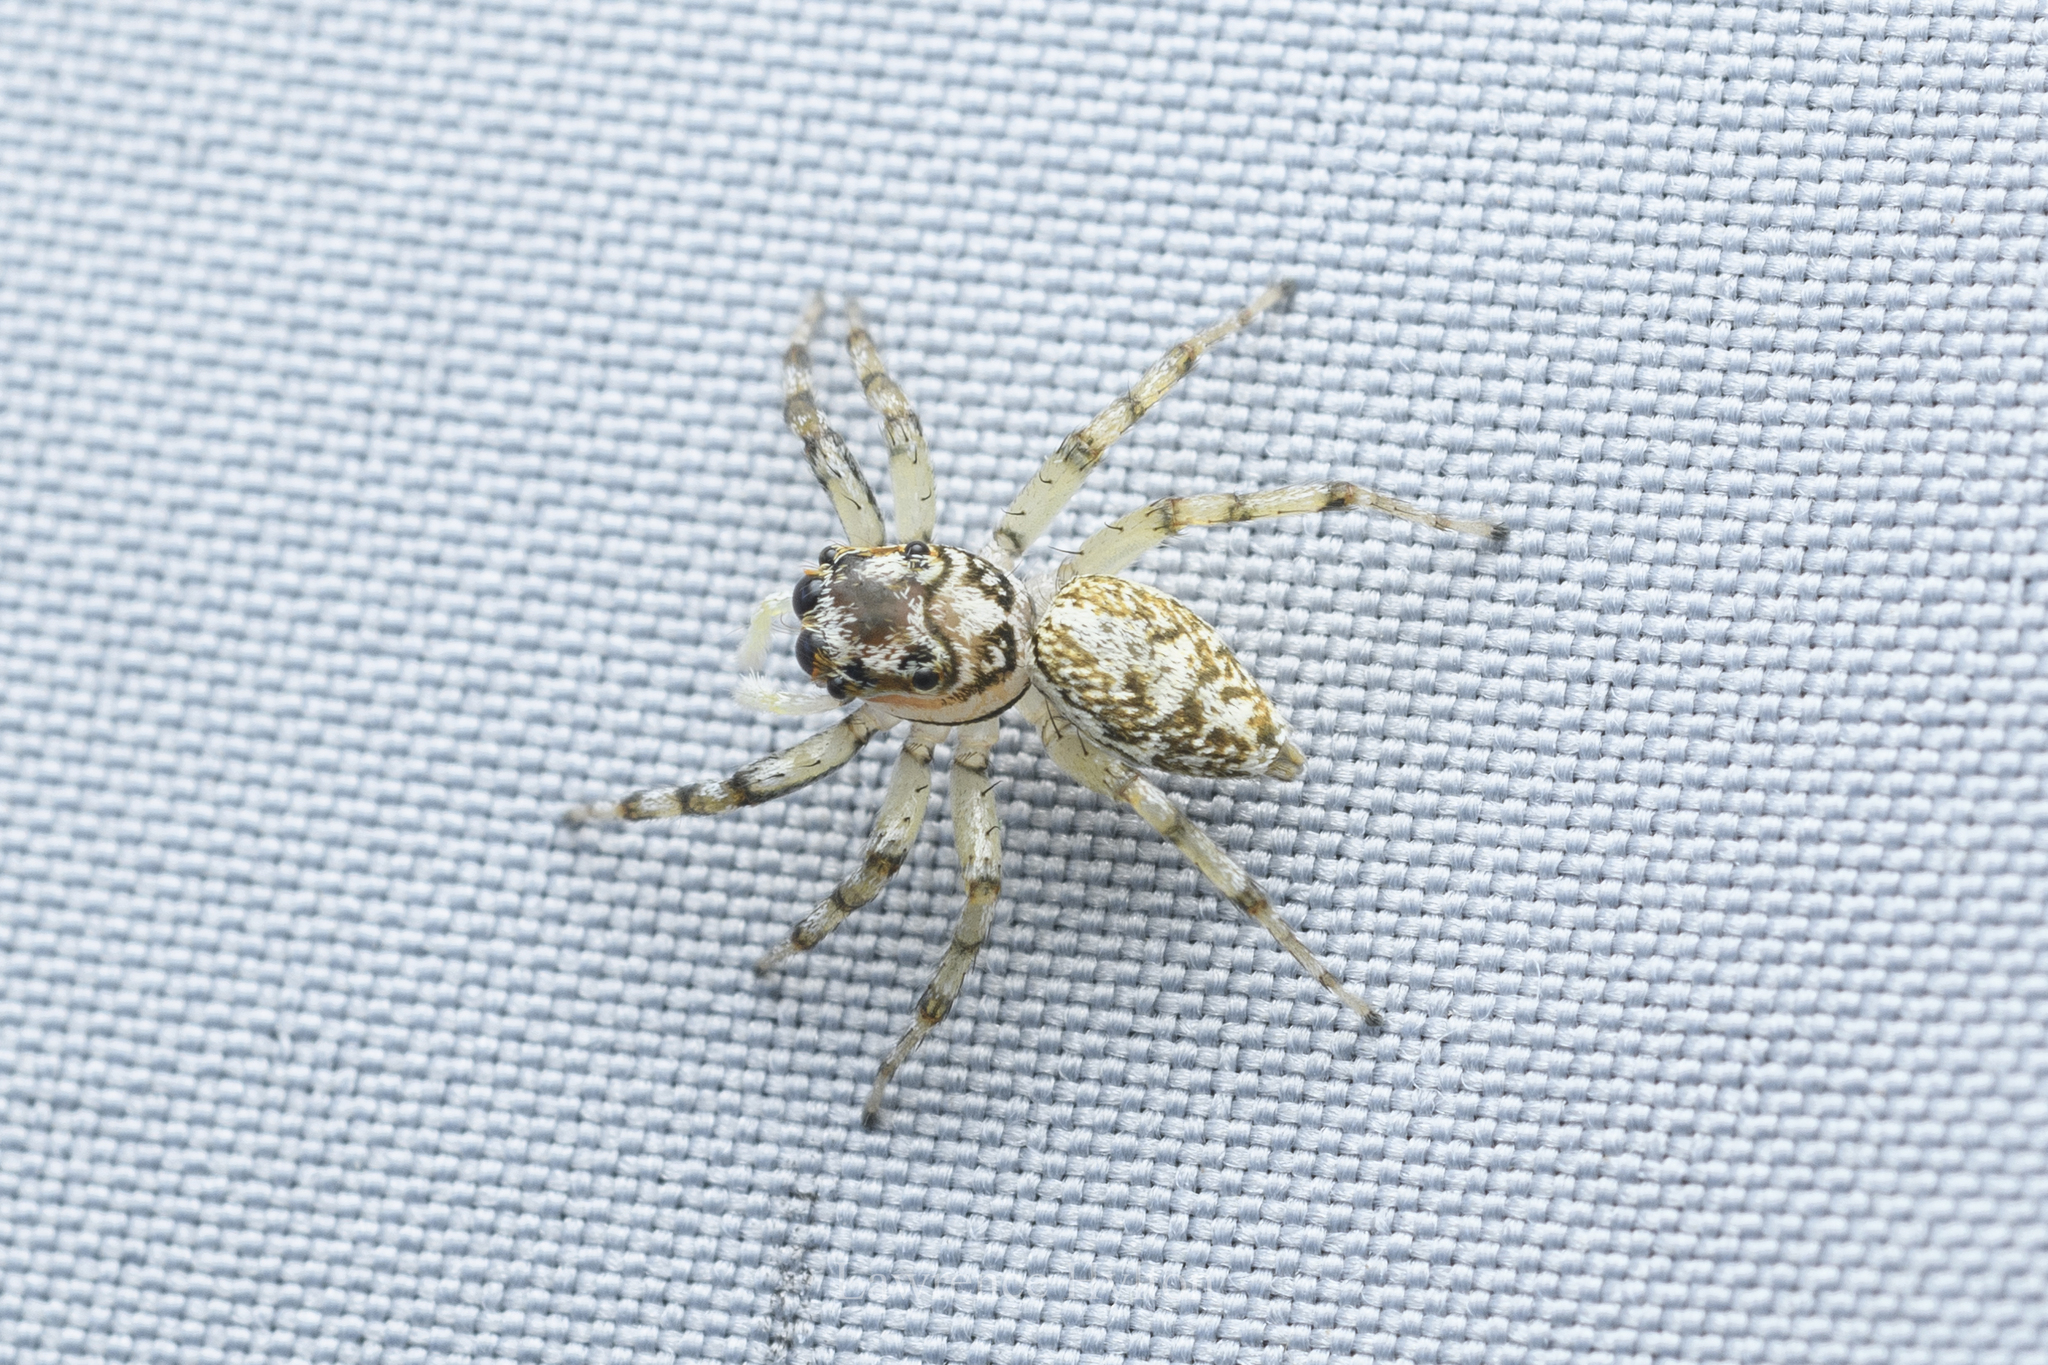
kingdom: Animalia
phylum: Arthropoda
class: Arachnida
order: Araneae
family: Salticidae
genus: Phintelloides
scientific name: Phintelloides versicolor
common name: Jumping spider
